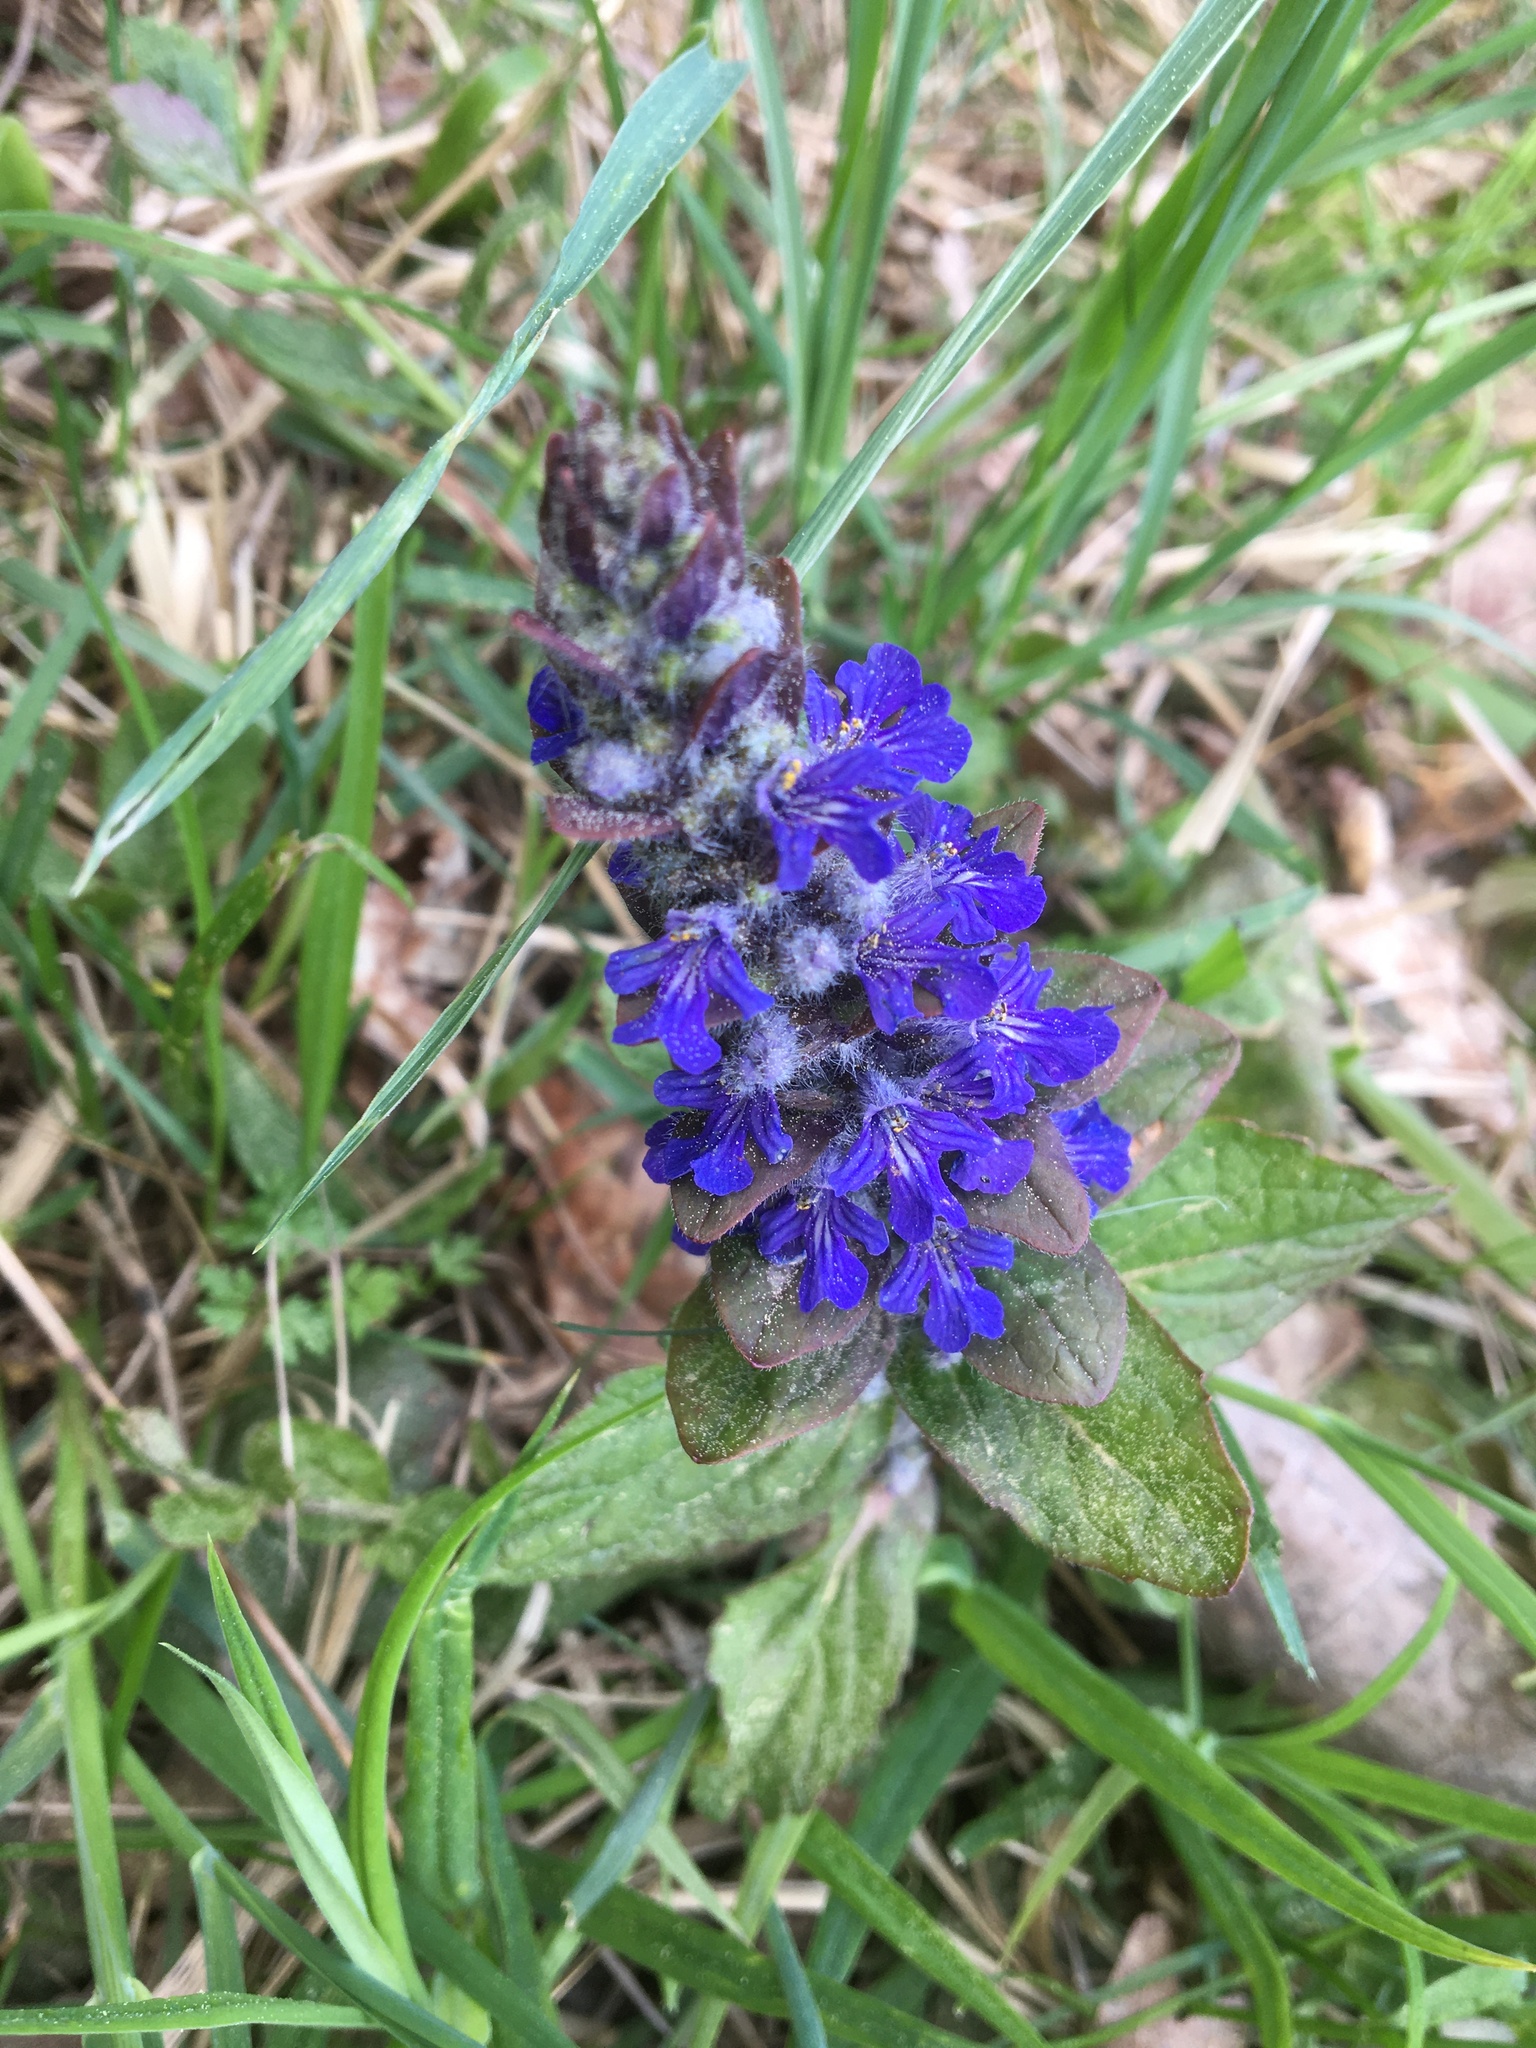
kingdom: Plantae
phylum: Tracheophyta
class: Magnoliopsida
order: Lamiales
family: Lamiaceae
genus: Ajuga
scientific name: Ajuga reptans
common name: Bugle
